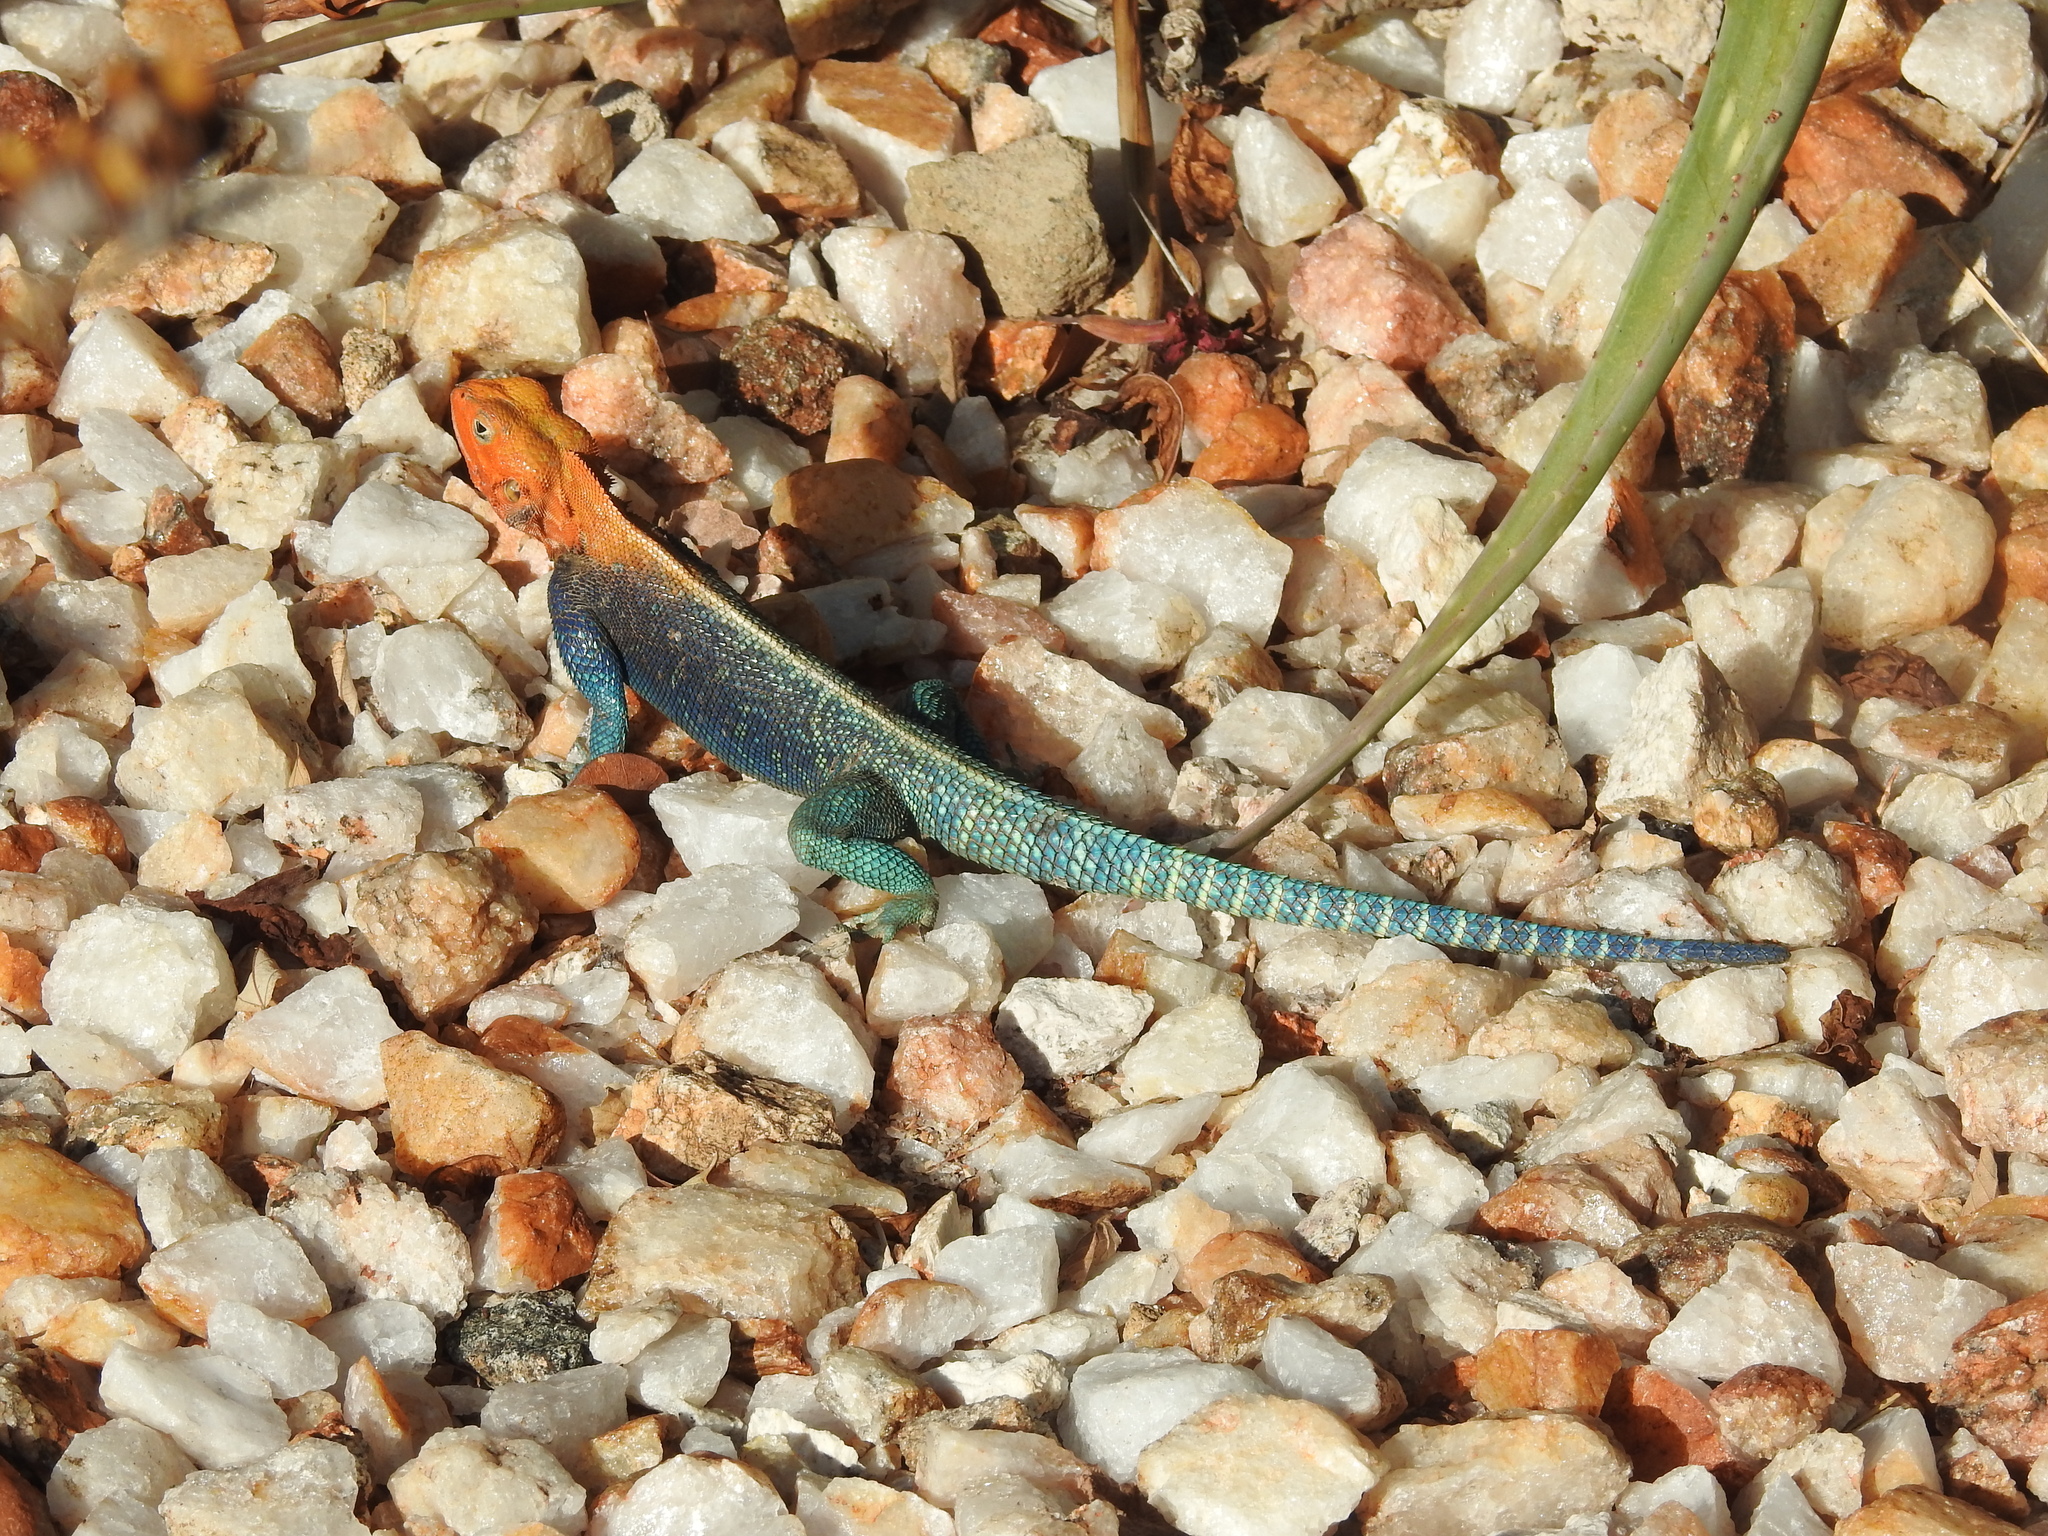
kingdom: Animalia
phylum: Chordata
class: Squamata
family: Agamidae
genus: Agama
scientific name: Agama lionotus
